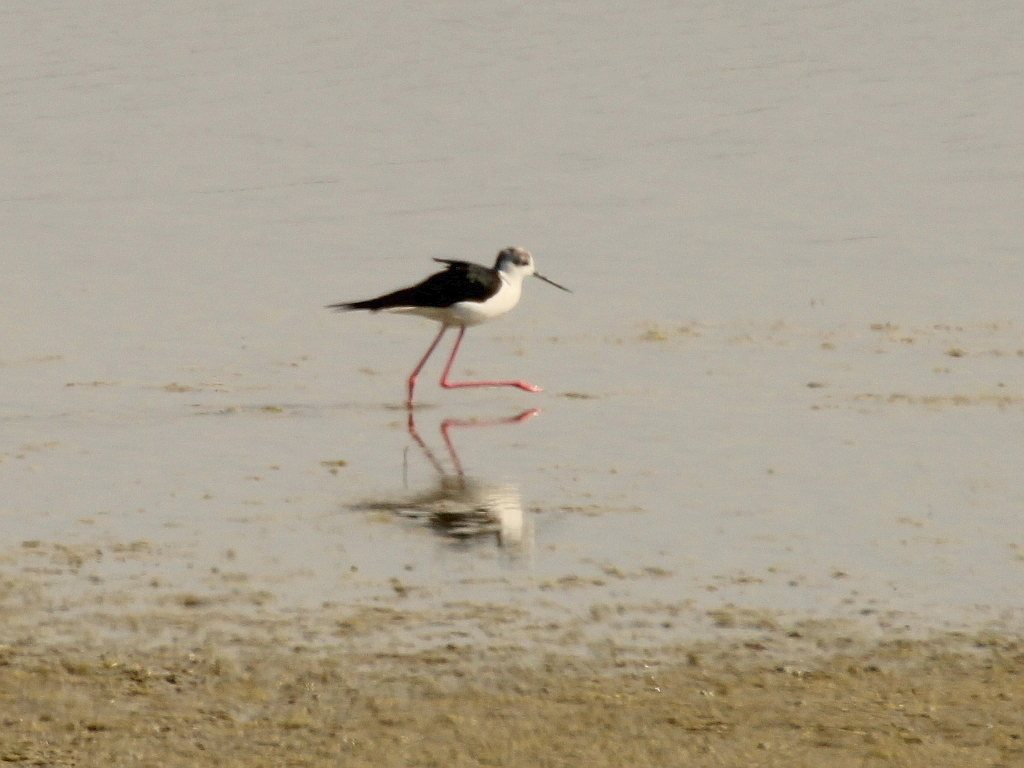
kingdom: Animalia
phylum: Chordata
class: Aves
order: Charadriiformes
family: Recurvirostridae
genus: Himantopus
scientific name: Himantopus himantopus
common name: Black-winged stilt
